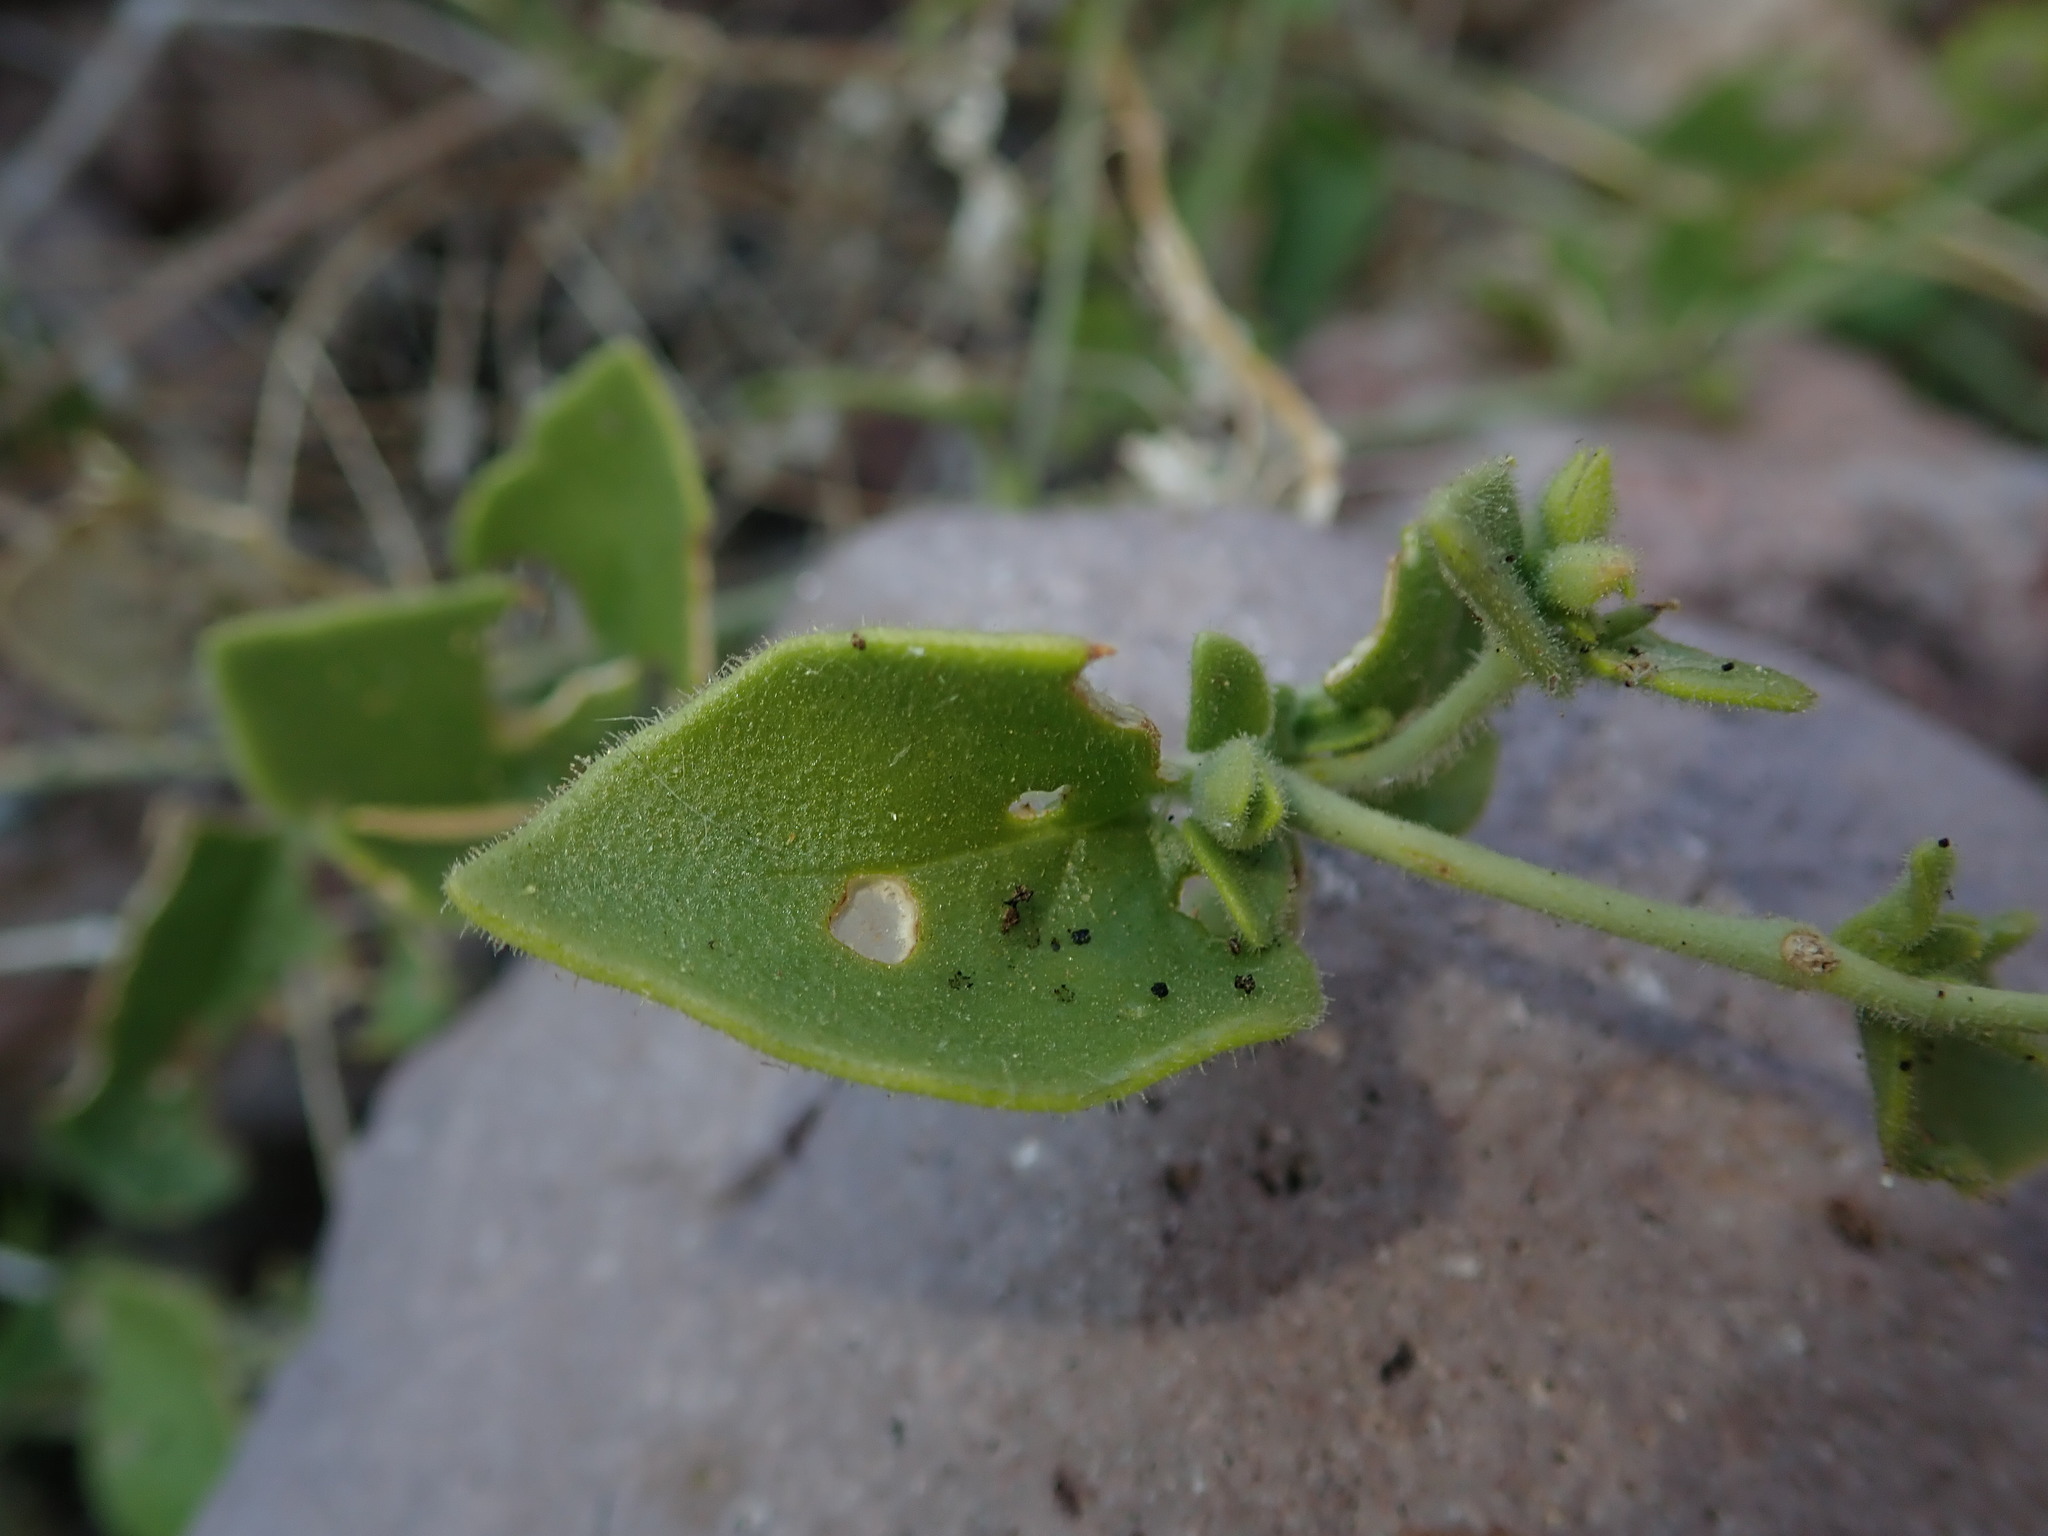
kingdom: Plantae
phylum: Tracheophyta
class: Magnoliopsida
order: Caryophyllales
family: Nyctaginaceae
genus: Mirabilis
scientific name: Mirabilis laevis
